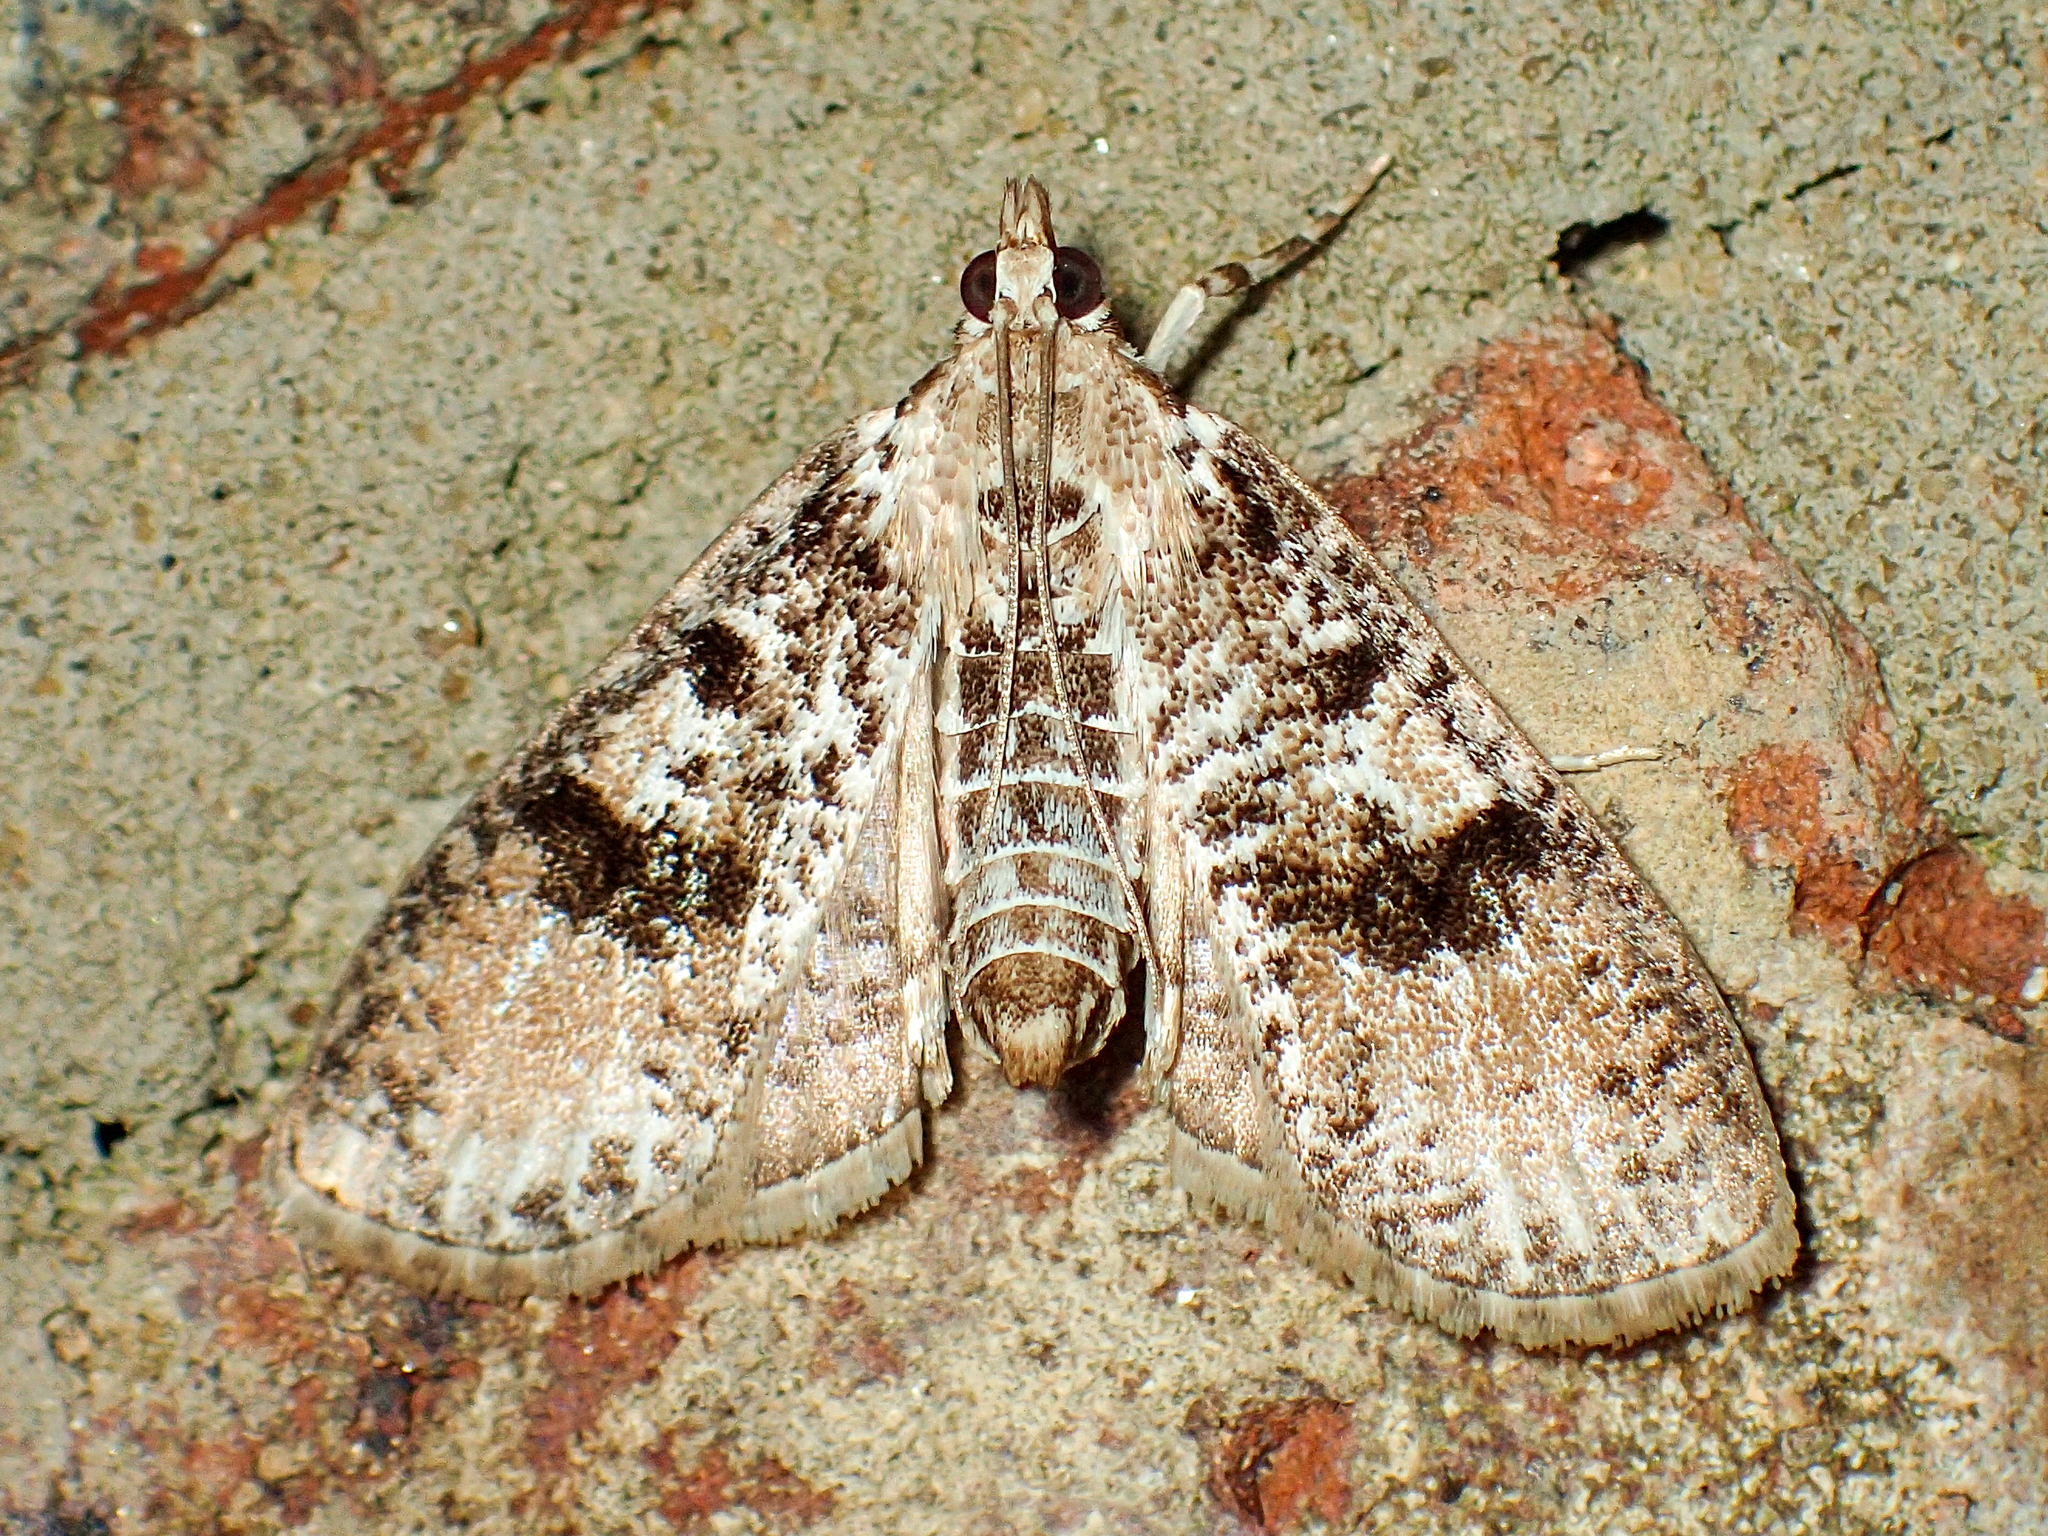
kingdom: Animalia
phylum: Arthropoda
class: Insecta
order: Lepidoptera
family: Crambidae
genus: Palpita
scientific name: Palpita magniferalis
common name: Splendid palpita moth
